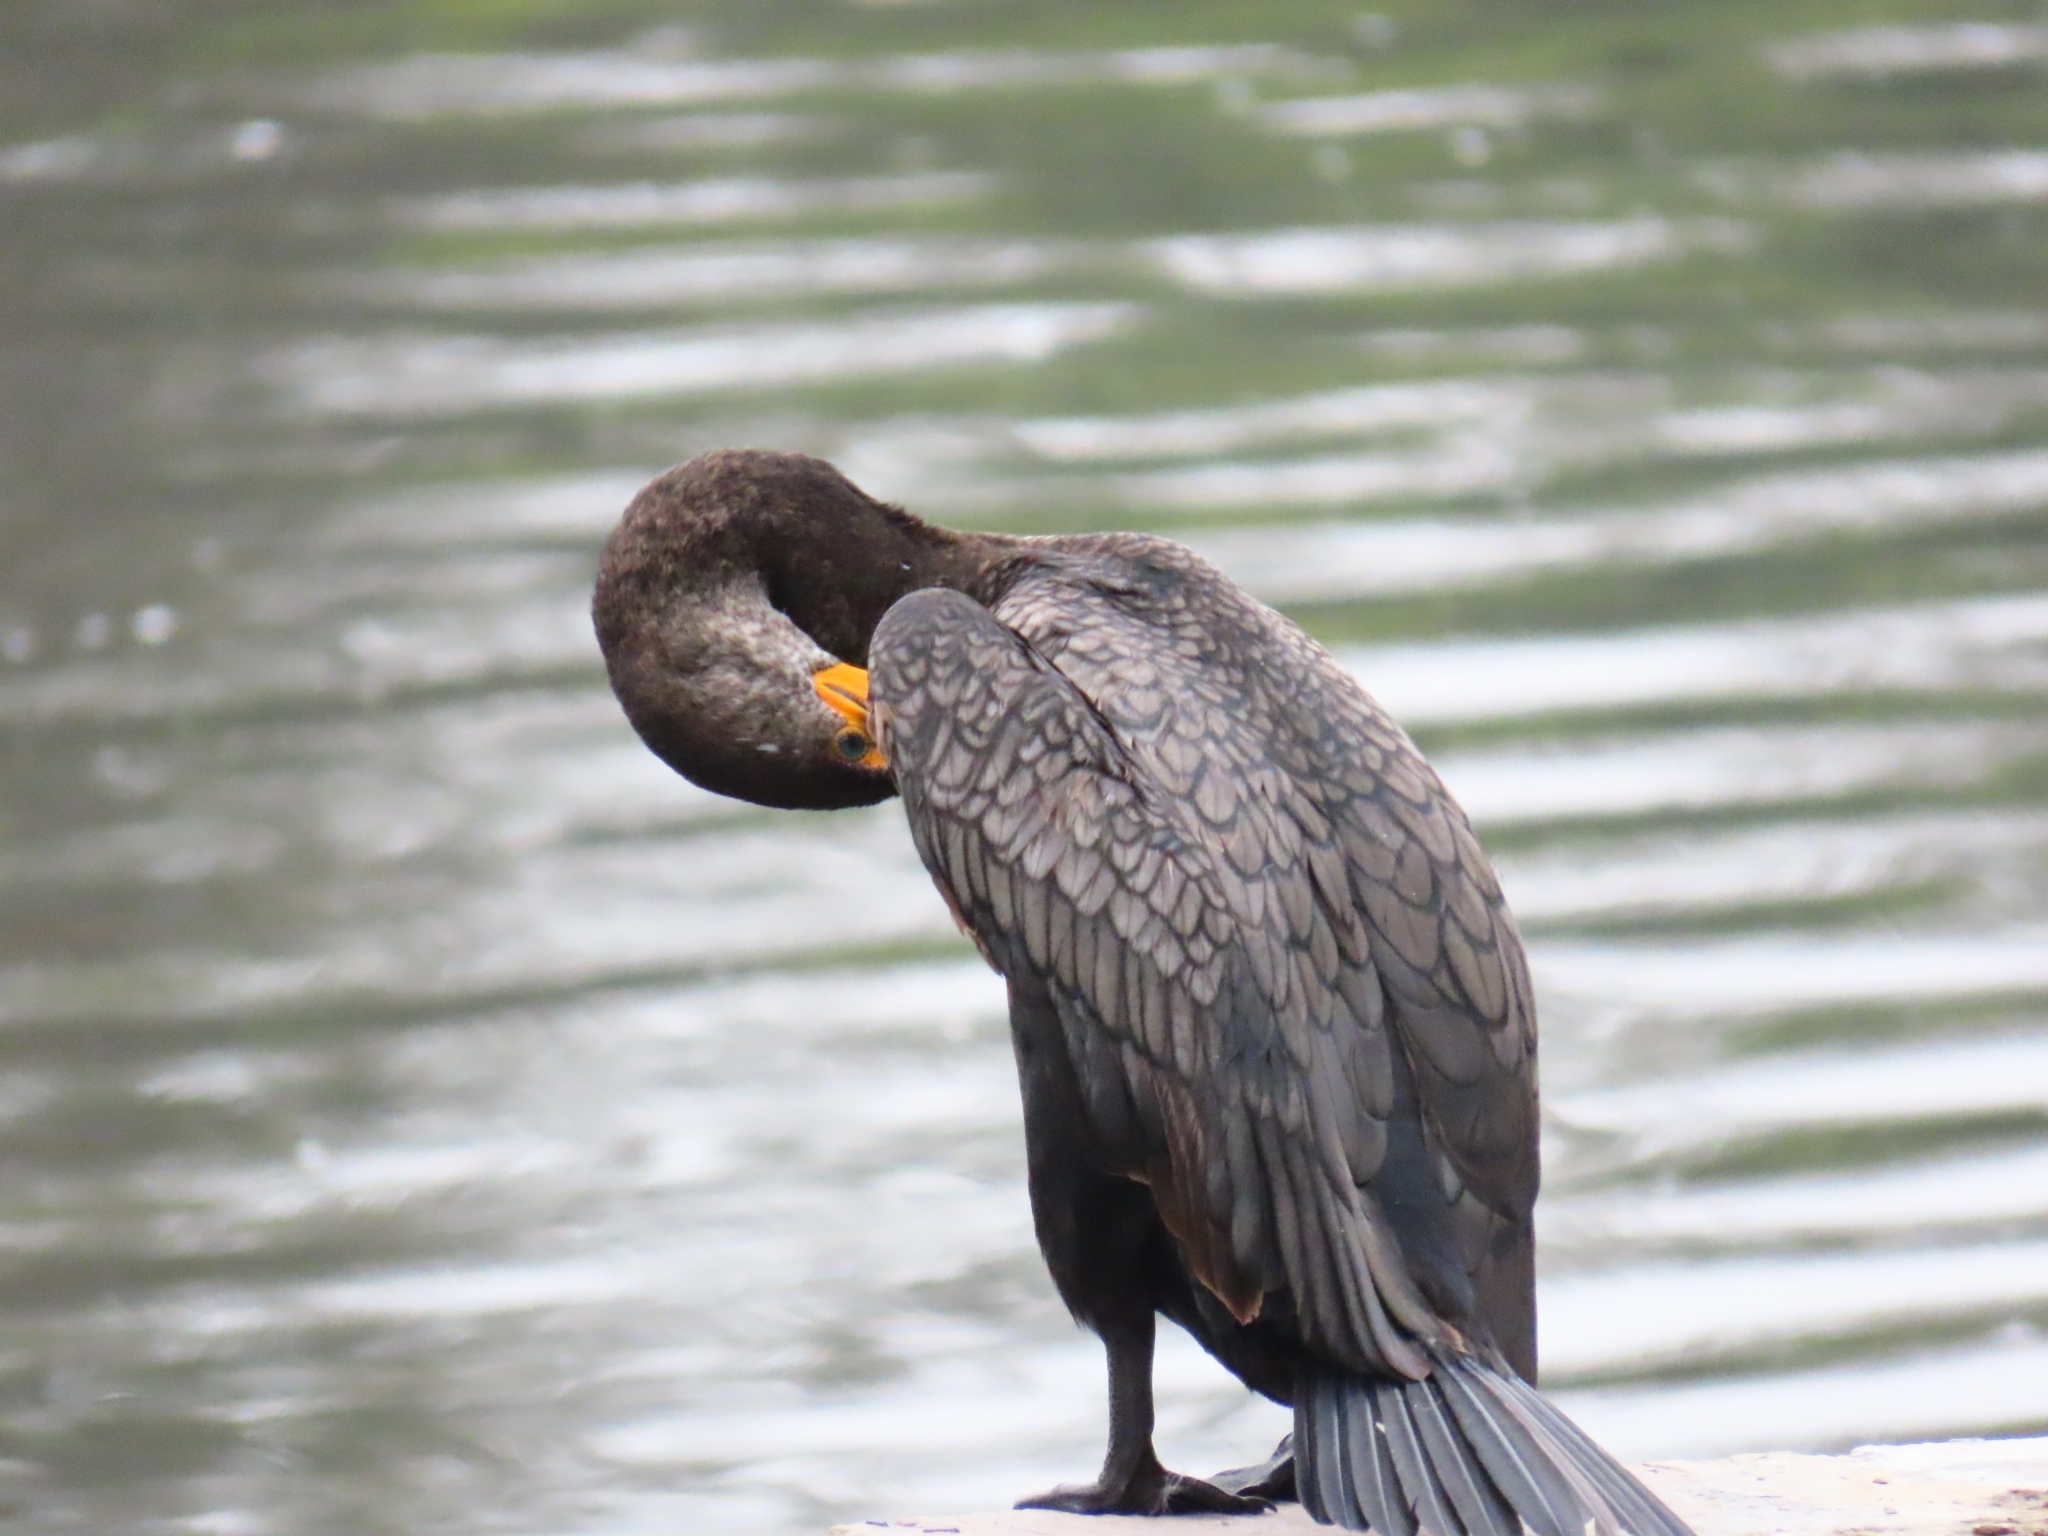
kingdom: Animalia
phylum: Chordata
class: Aves
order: Suliformes
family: Phalacrocoracidae
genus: Phalacrocorax
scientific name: Phalacrocorax auritus
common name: Double-crested cormorant
